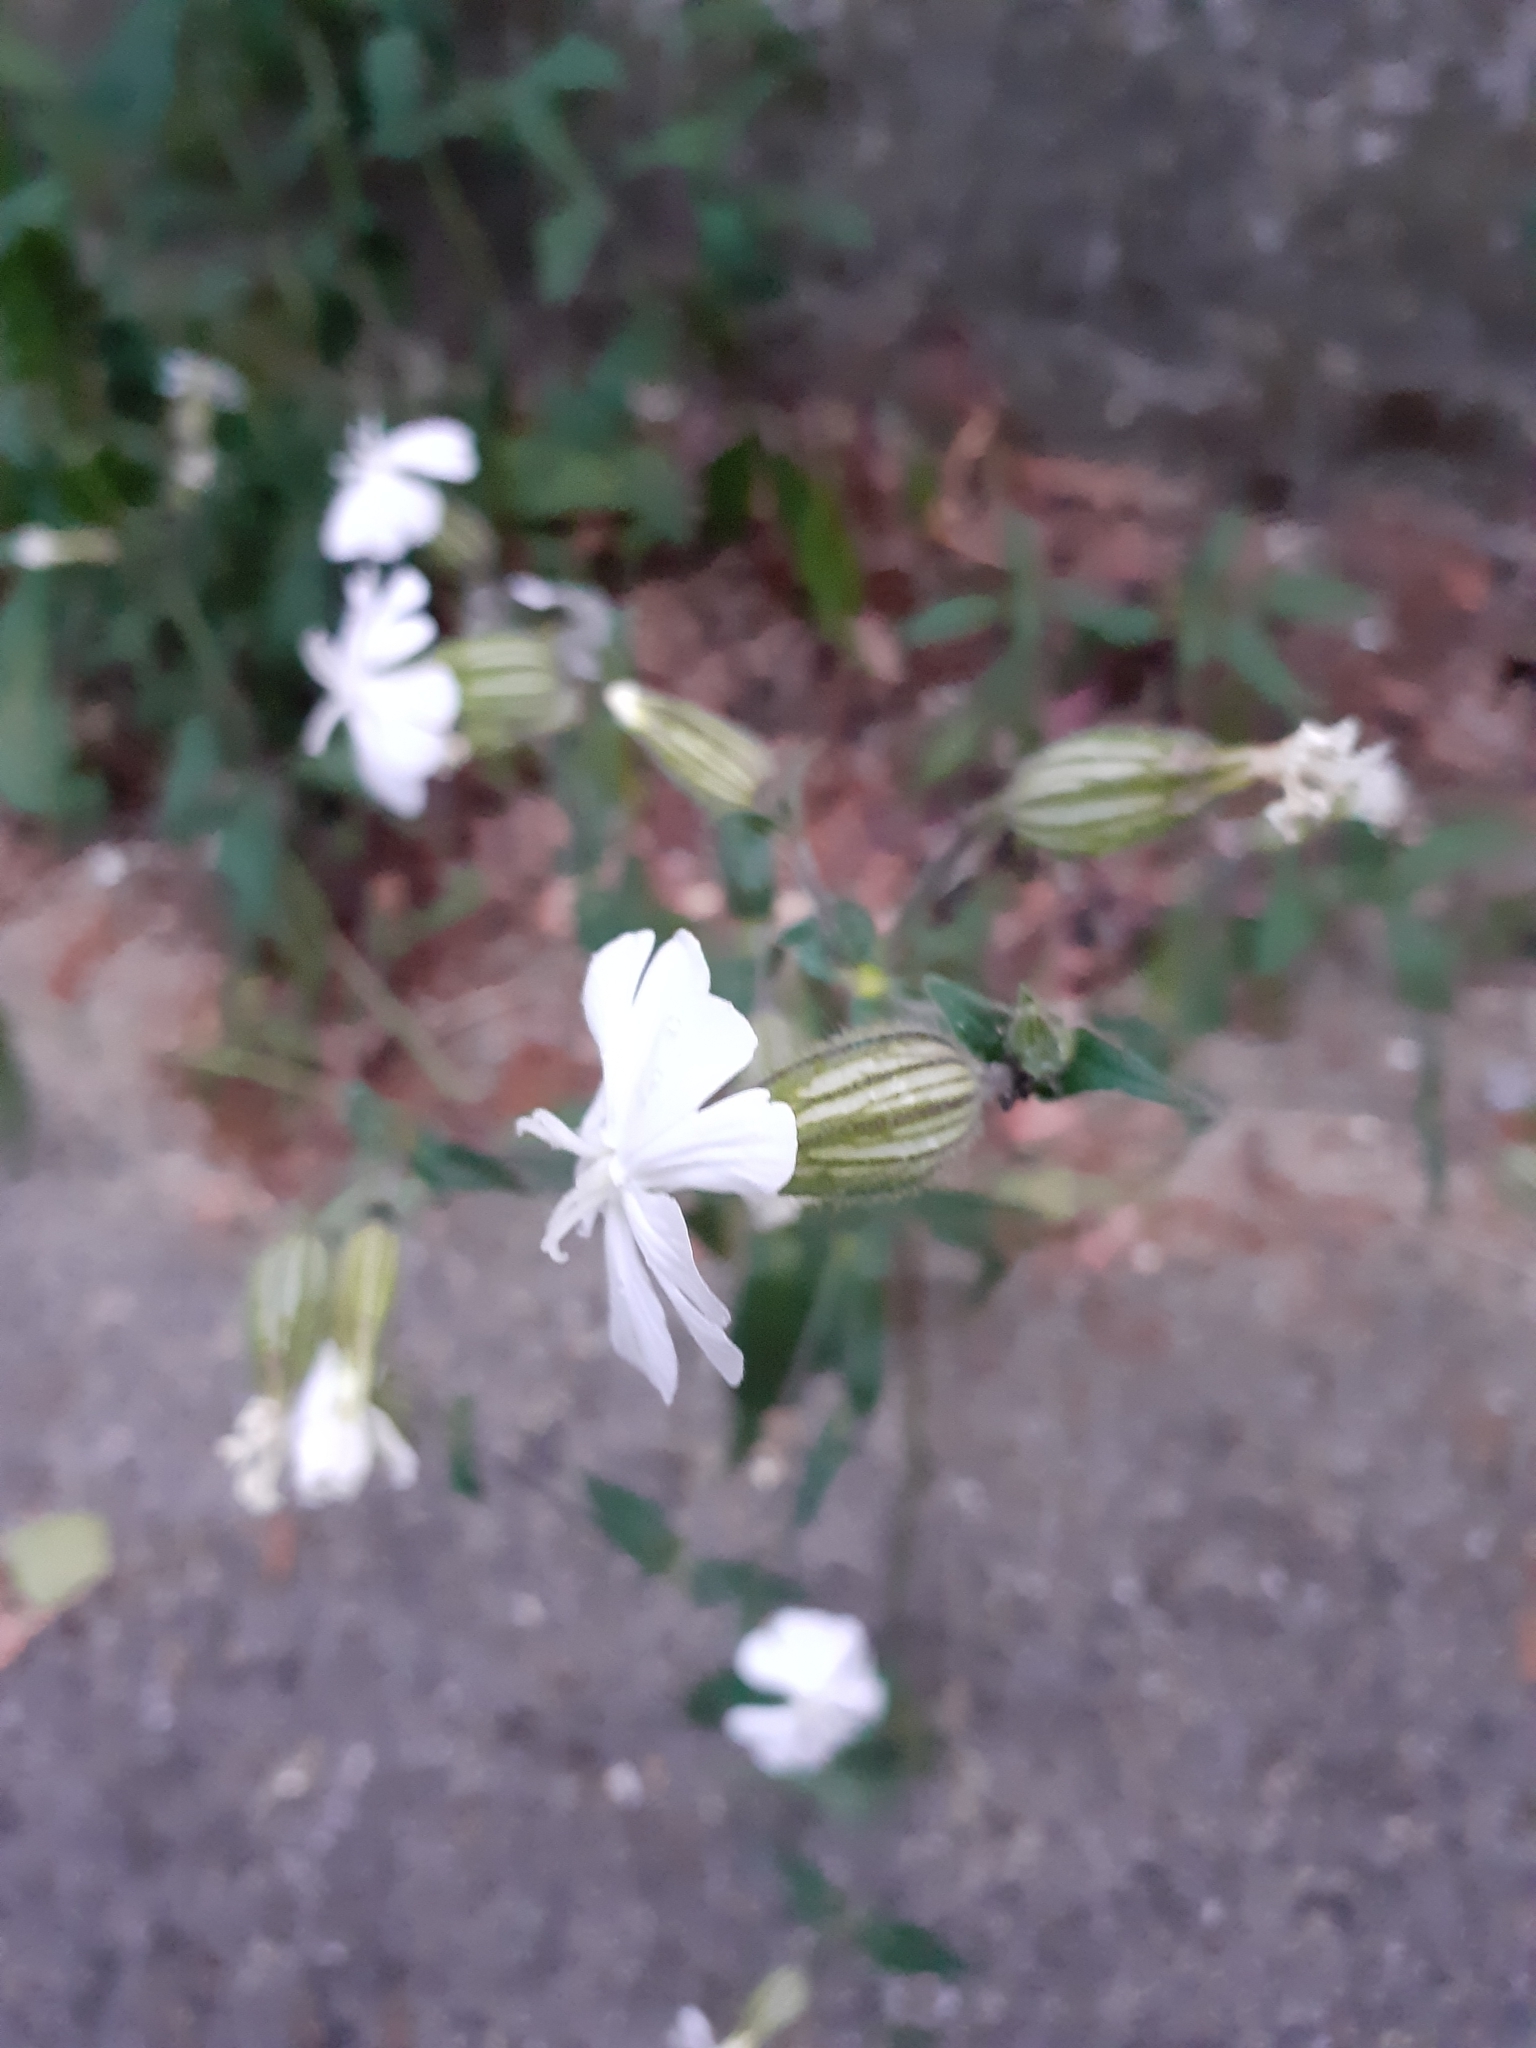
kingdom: Plantae
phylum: Tracheophyta
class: Magnoliopsida
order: Caryophyllales
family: Caryophyllaceae
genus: Silene
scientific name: Silene latifolia
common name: White campion
